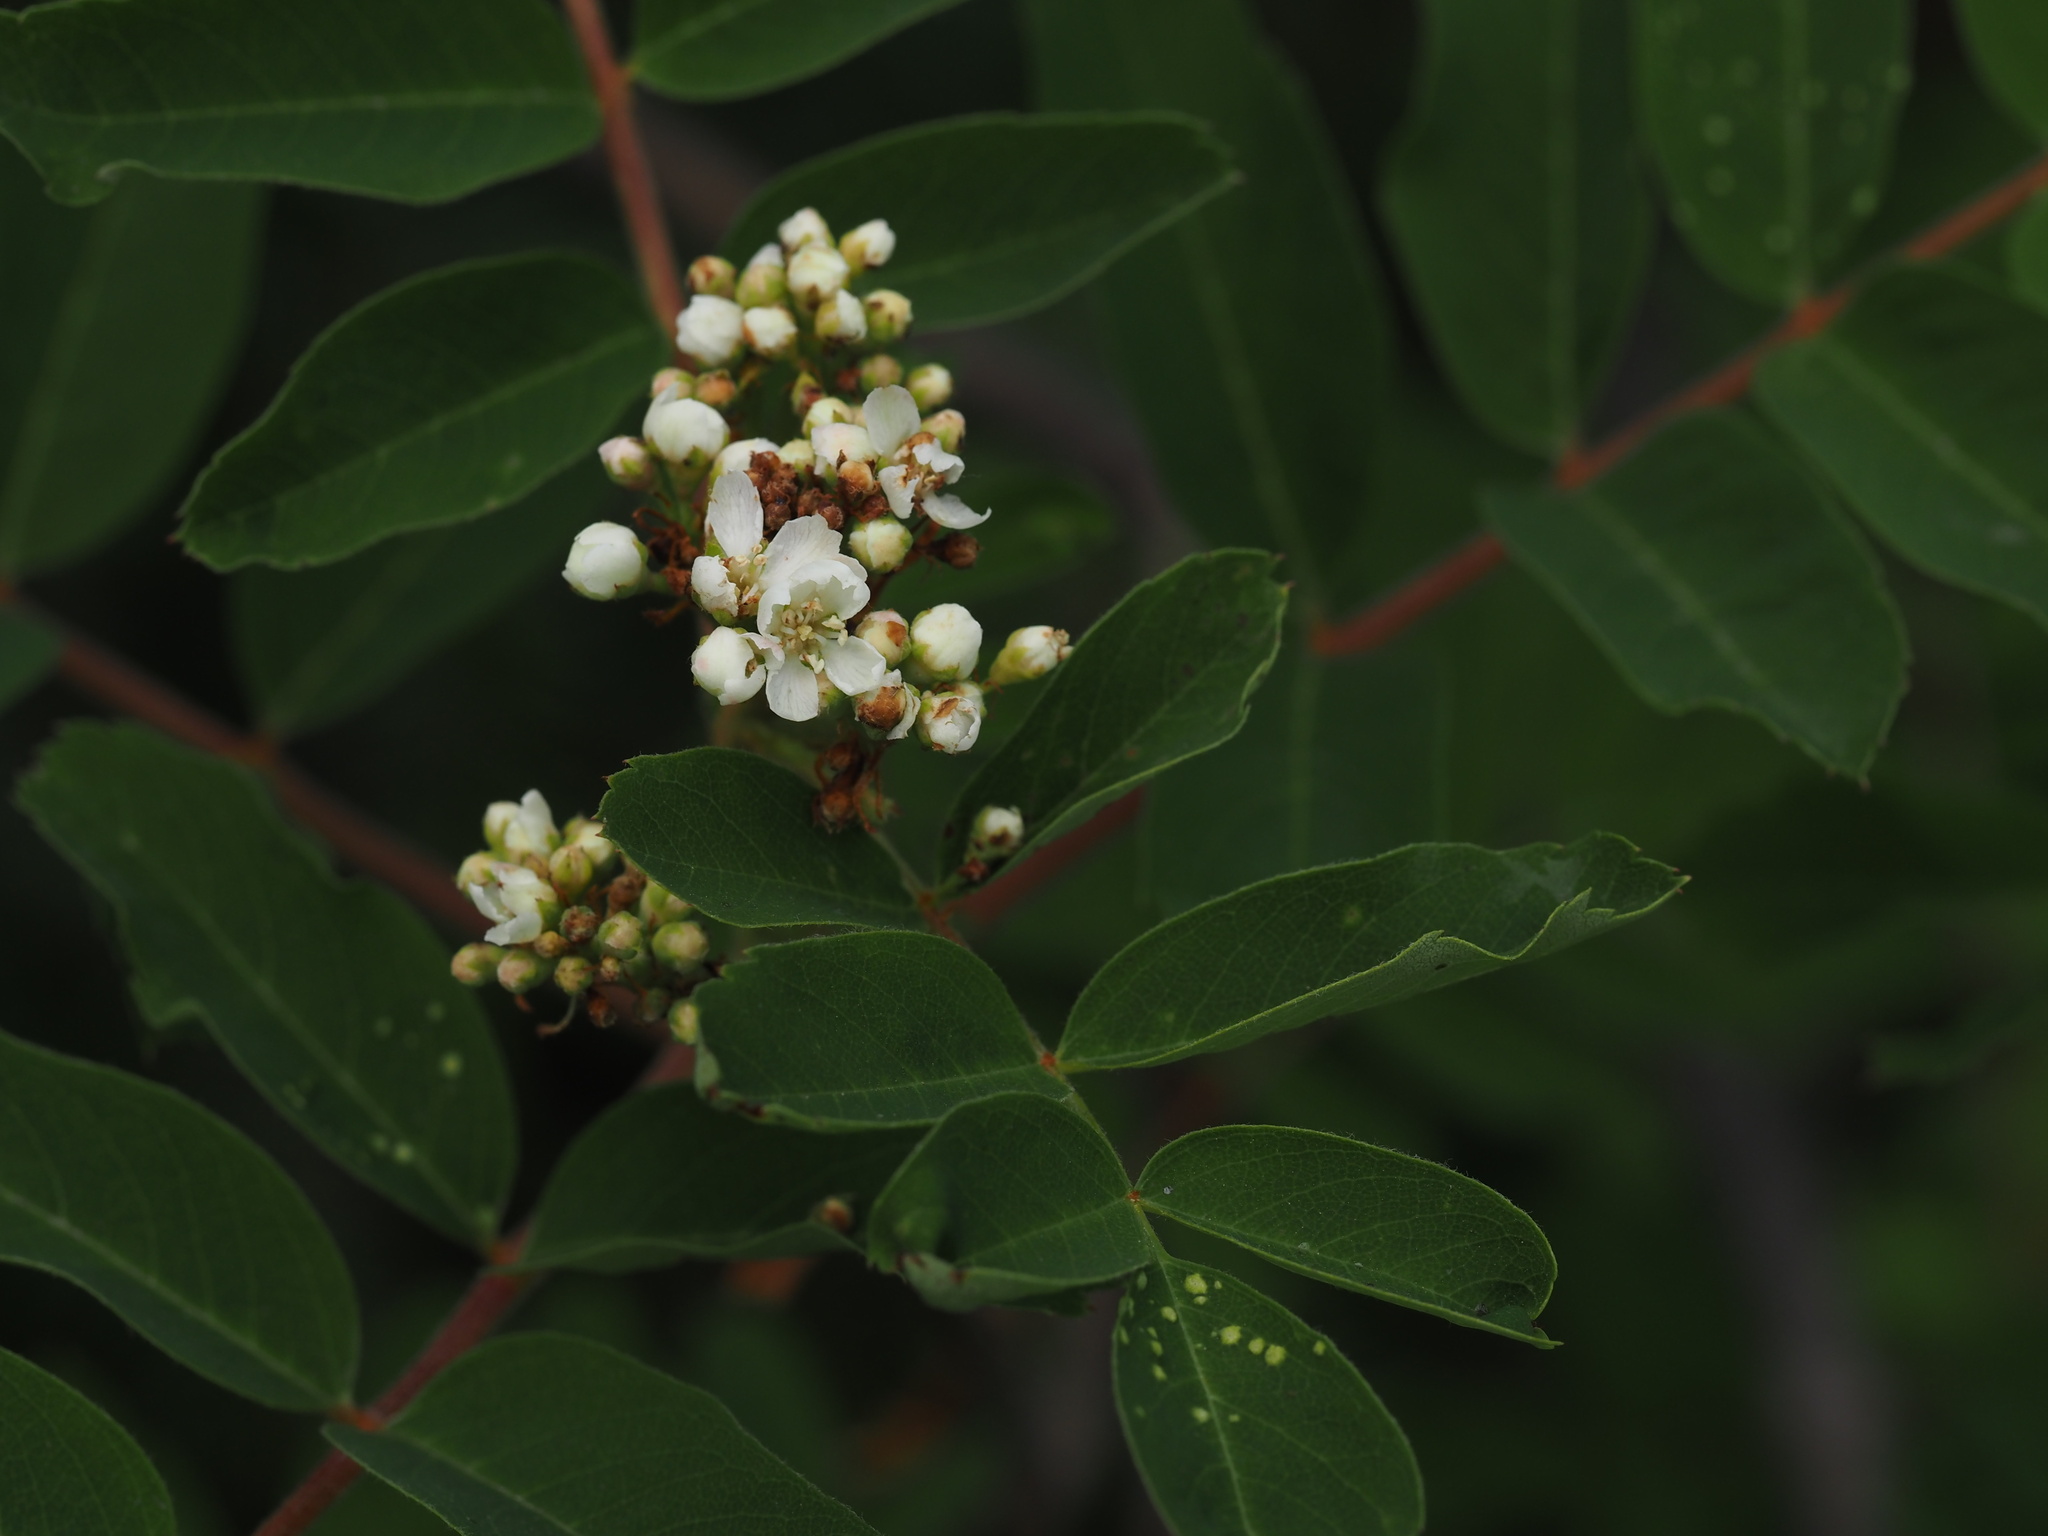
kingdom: Plantae
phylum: Tracheophyta
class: Magnoliopsida
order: Rosales
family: Rosaceae
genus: Sorbus
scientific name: Sorbus sitchensis
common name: Sitka mountain-ash
